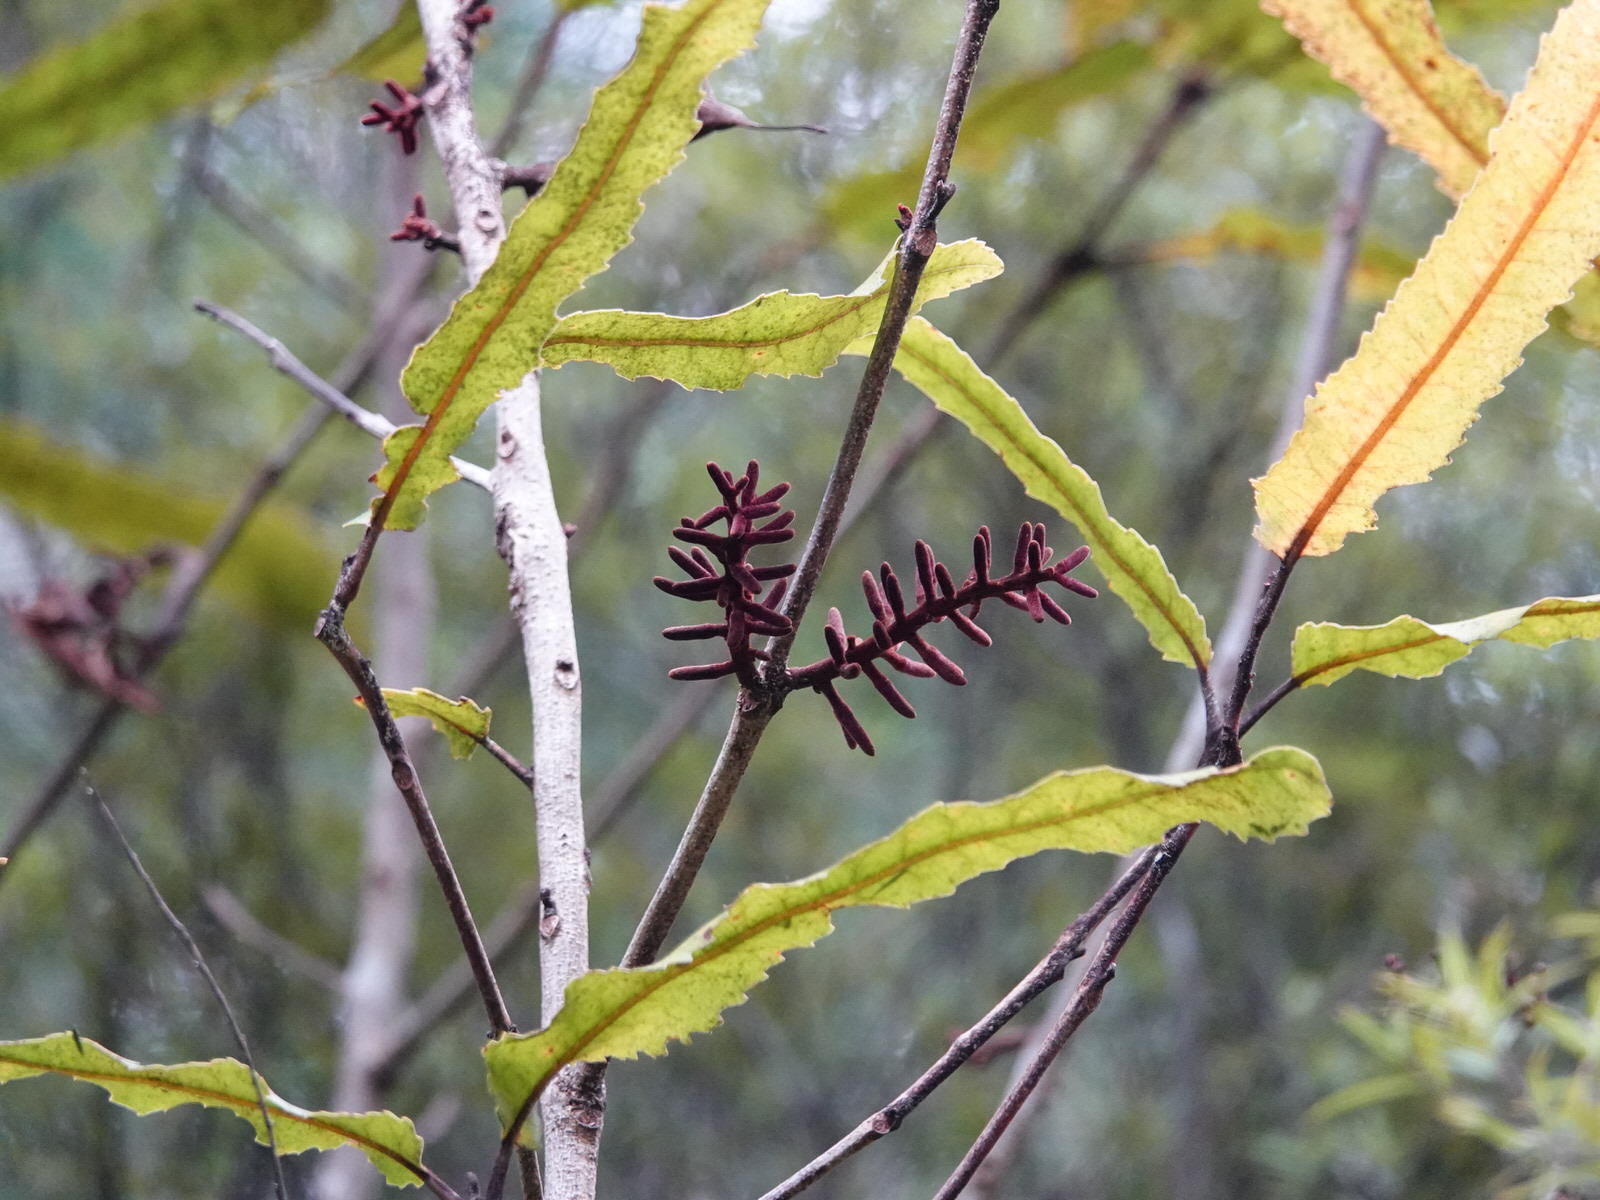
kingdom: Plantae
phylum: Tracheophyta
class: Magnoliopsida
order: Proteales
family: Proteaceae
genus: Knightia
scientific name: Knightia excelsa
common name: New zealand-honeysuckle
